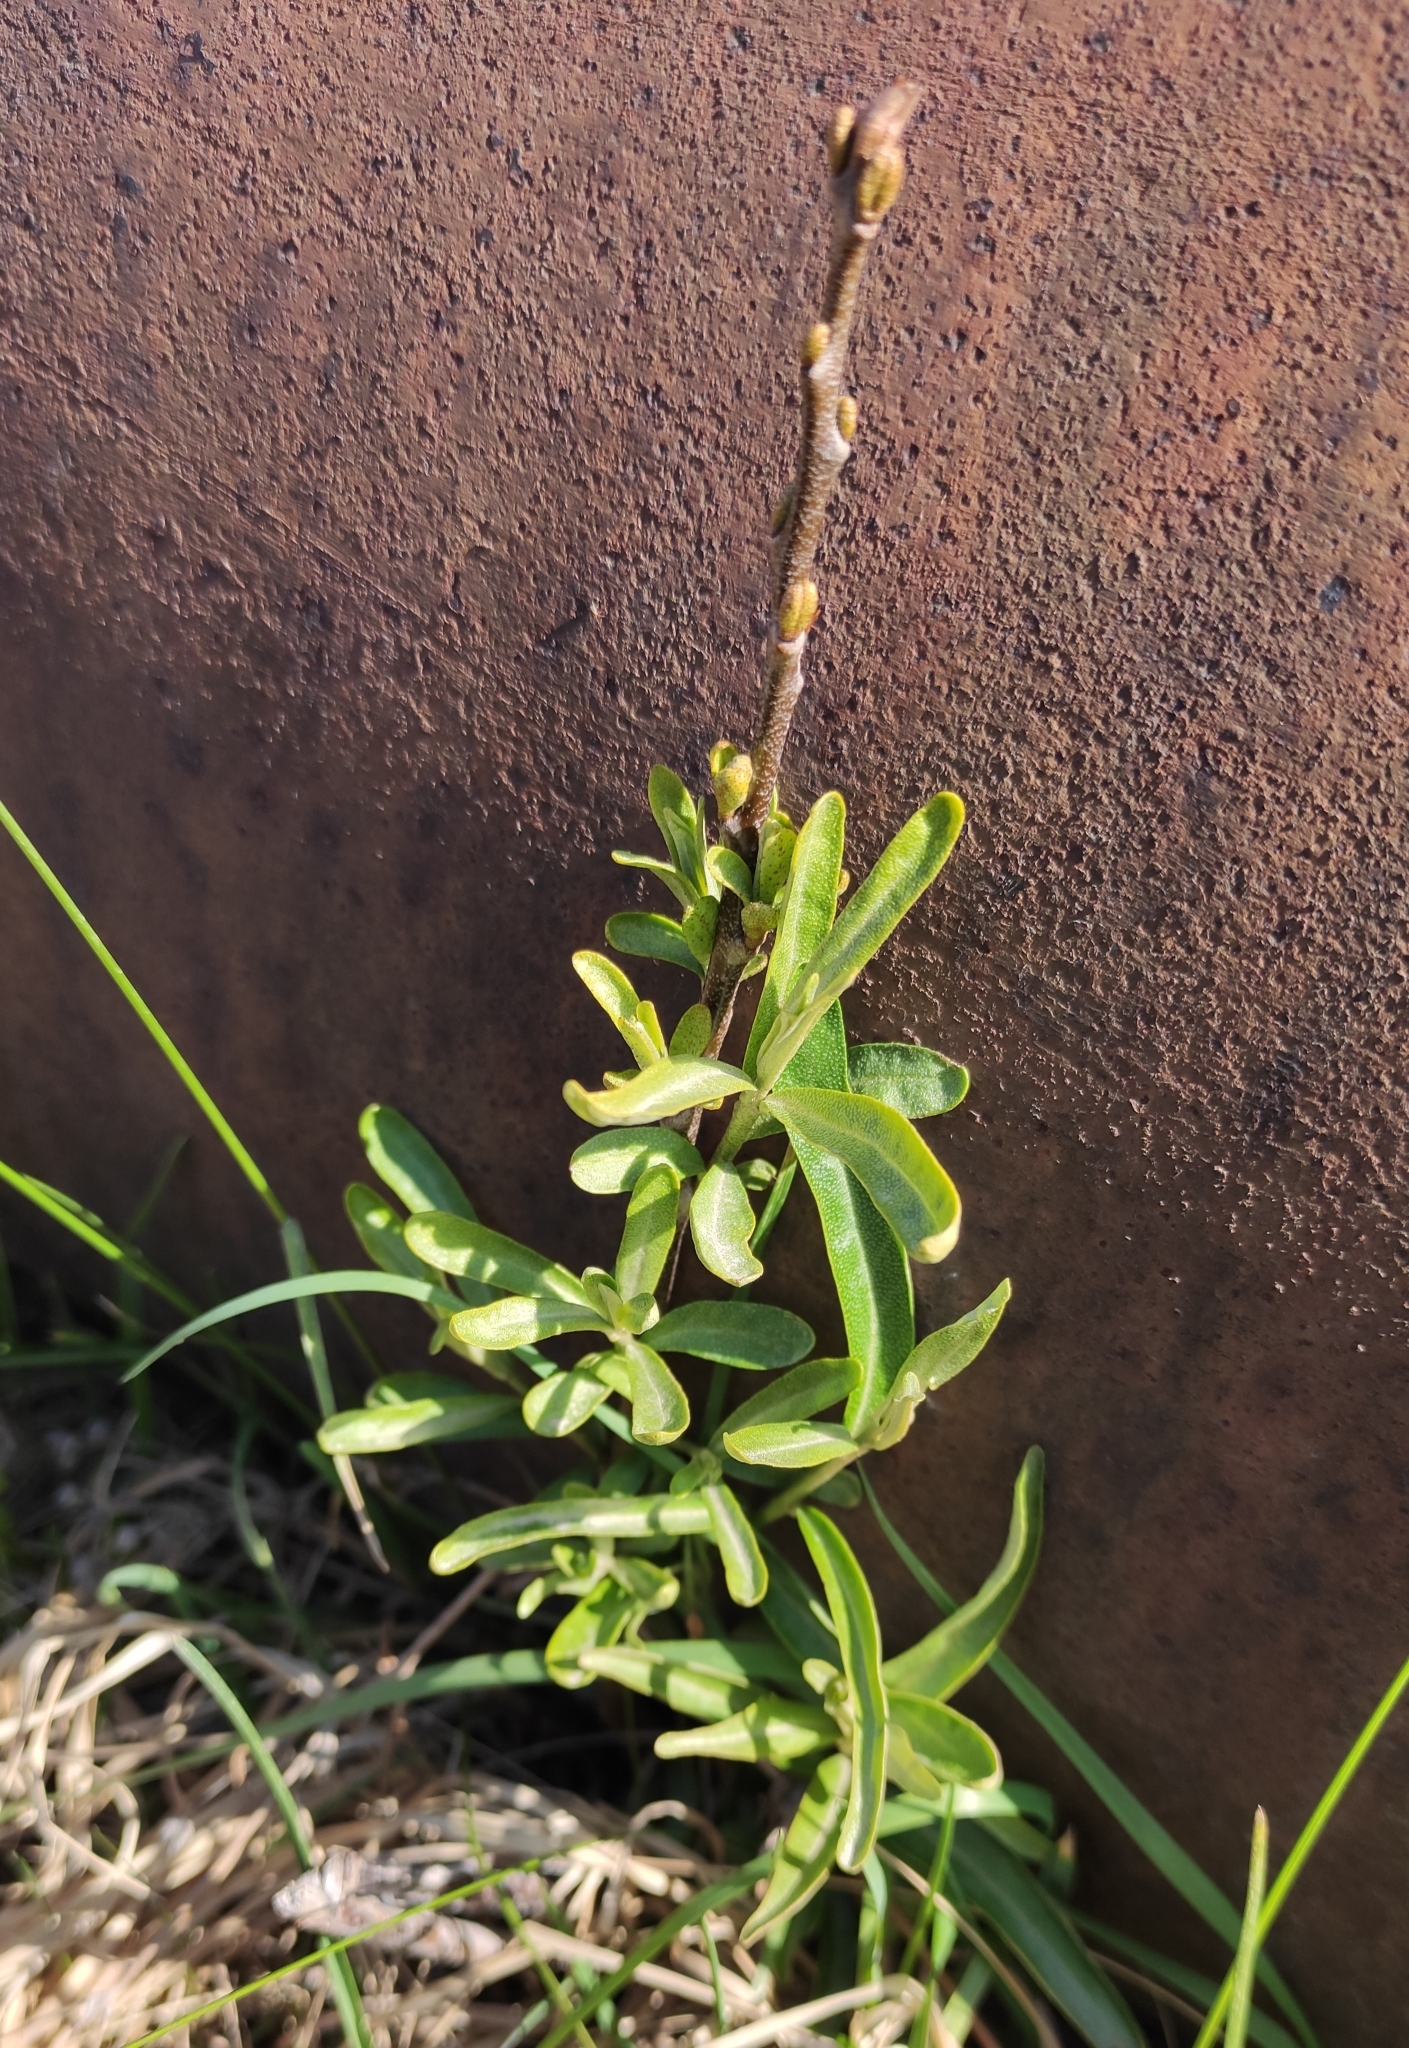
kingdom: Plantae
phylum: Tracheophyta
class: Magnoliopsida
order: Rosales
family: Elaeagnaceae
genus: Hippophae
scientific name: Hippophae rhamnoides
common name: Sea-buckthorn
